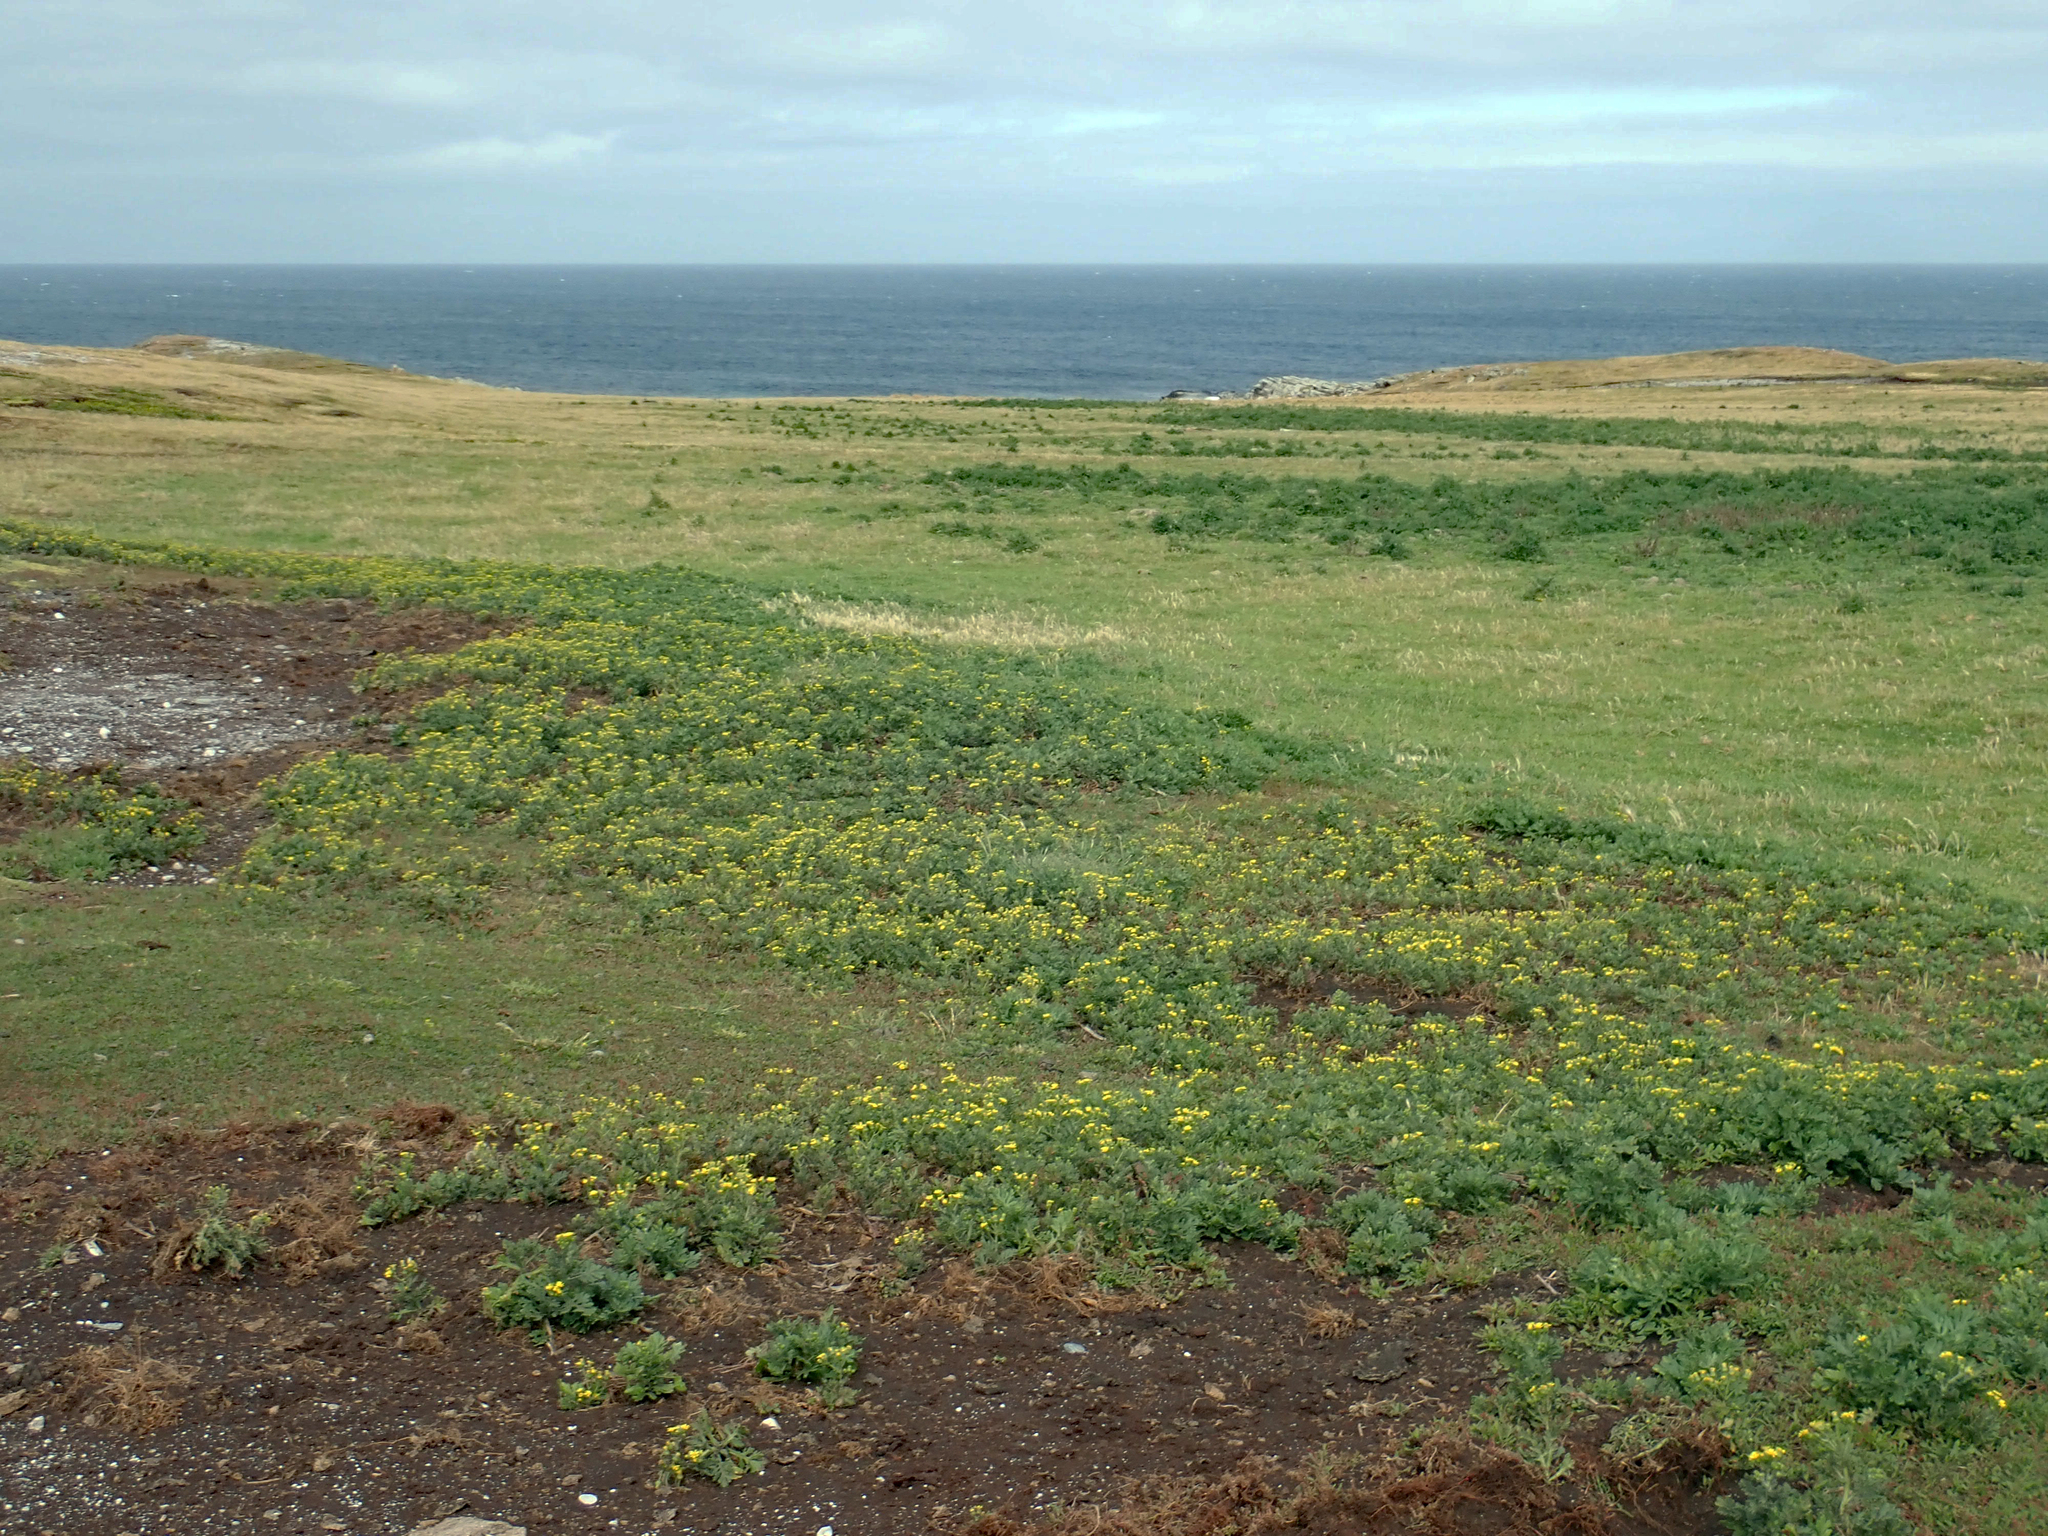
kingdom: Plantae
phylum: Tracheophyta
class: Magnoliopsida
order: Asterales
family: Asteraceae
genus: Senecio
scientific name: Senecio radiolatus
